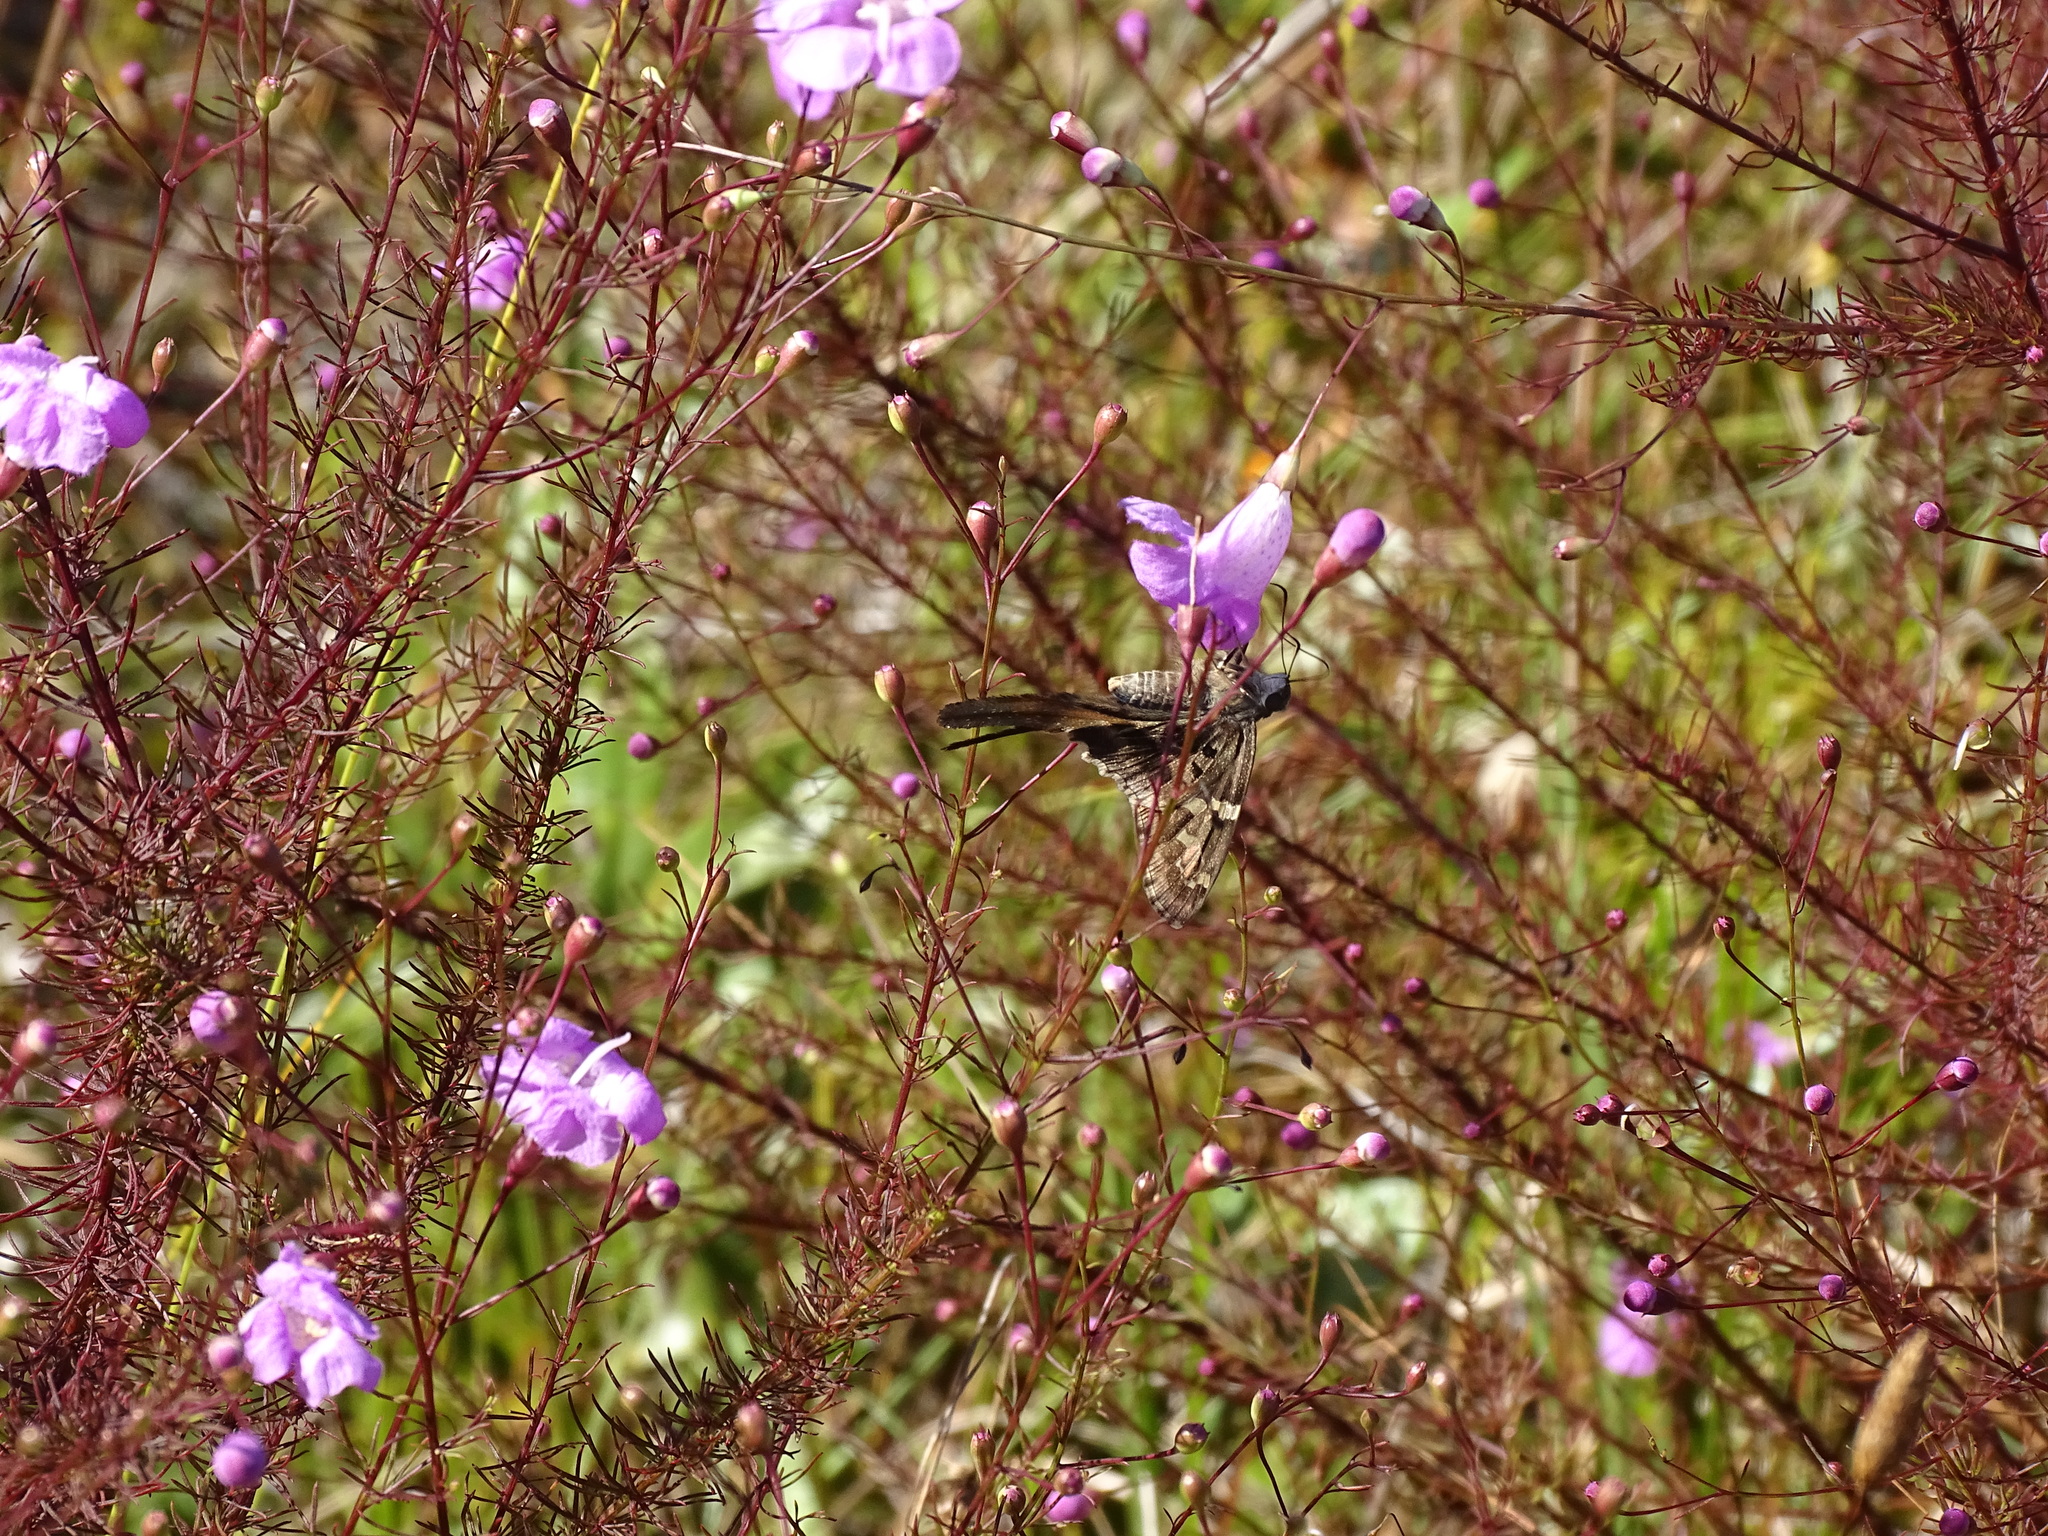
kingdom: Animalia
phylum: Arthropoda
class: Insecta
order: Lepidoptera
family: Hesperiidae
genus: Urbanus
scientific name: Urbanus proteus
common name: Long-tailed skipper
